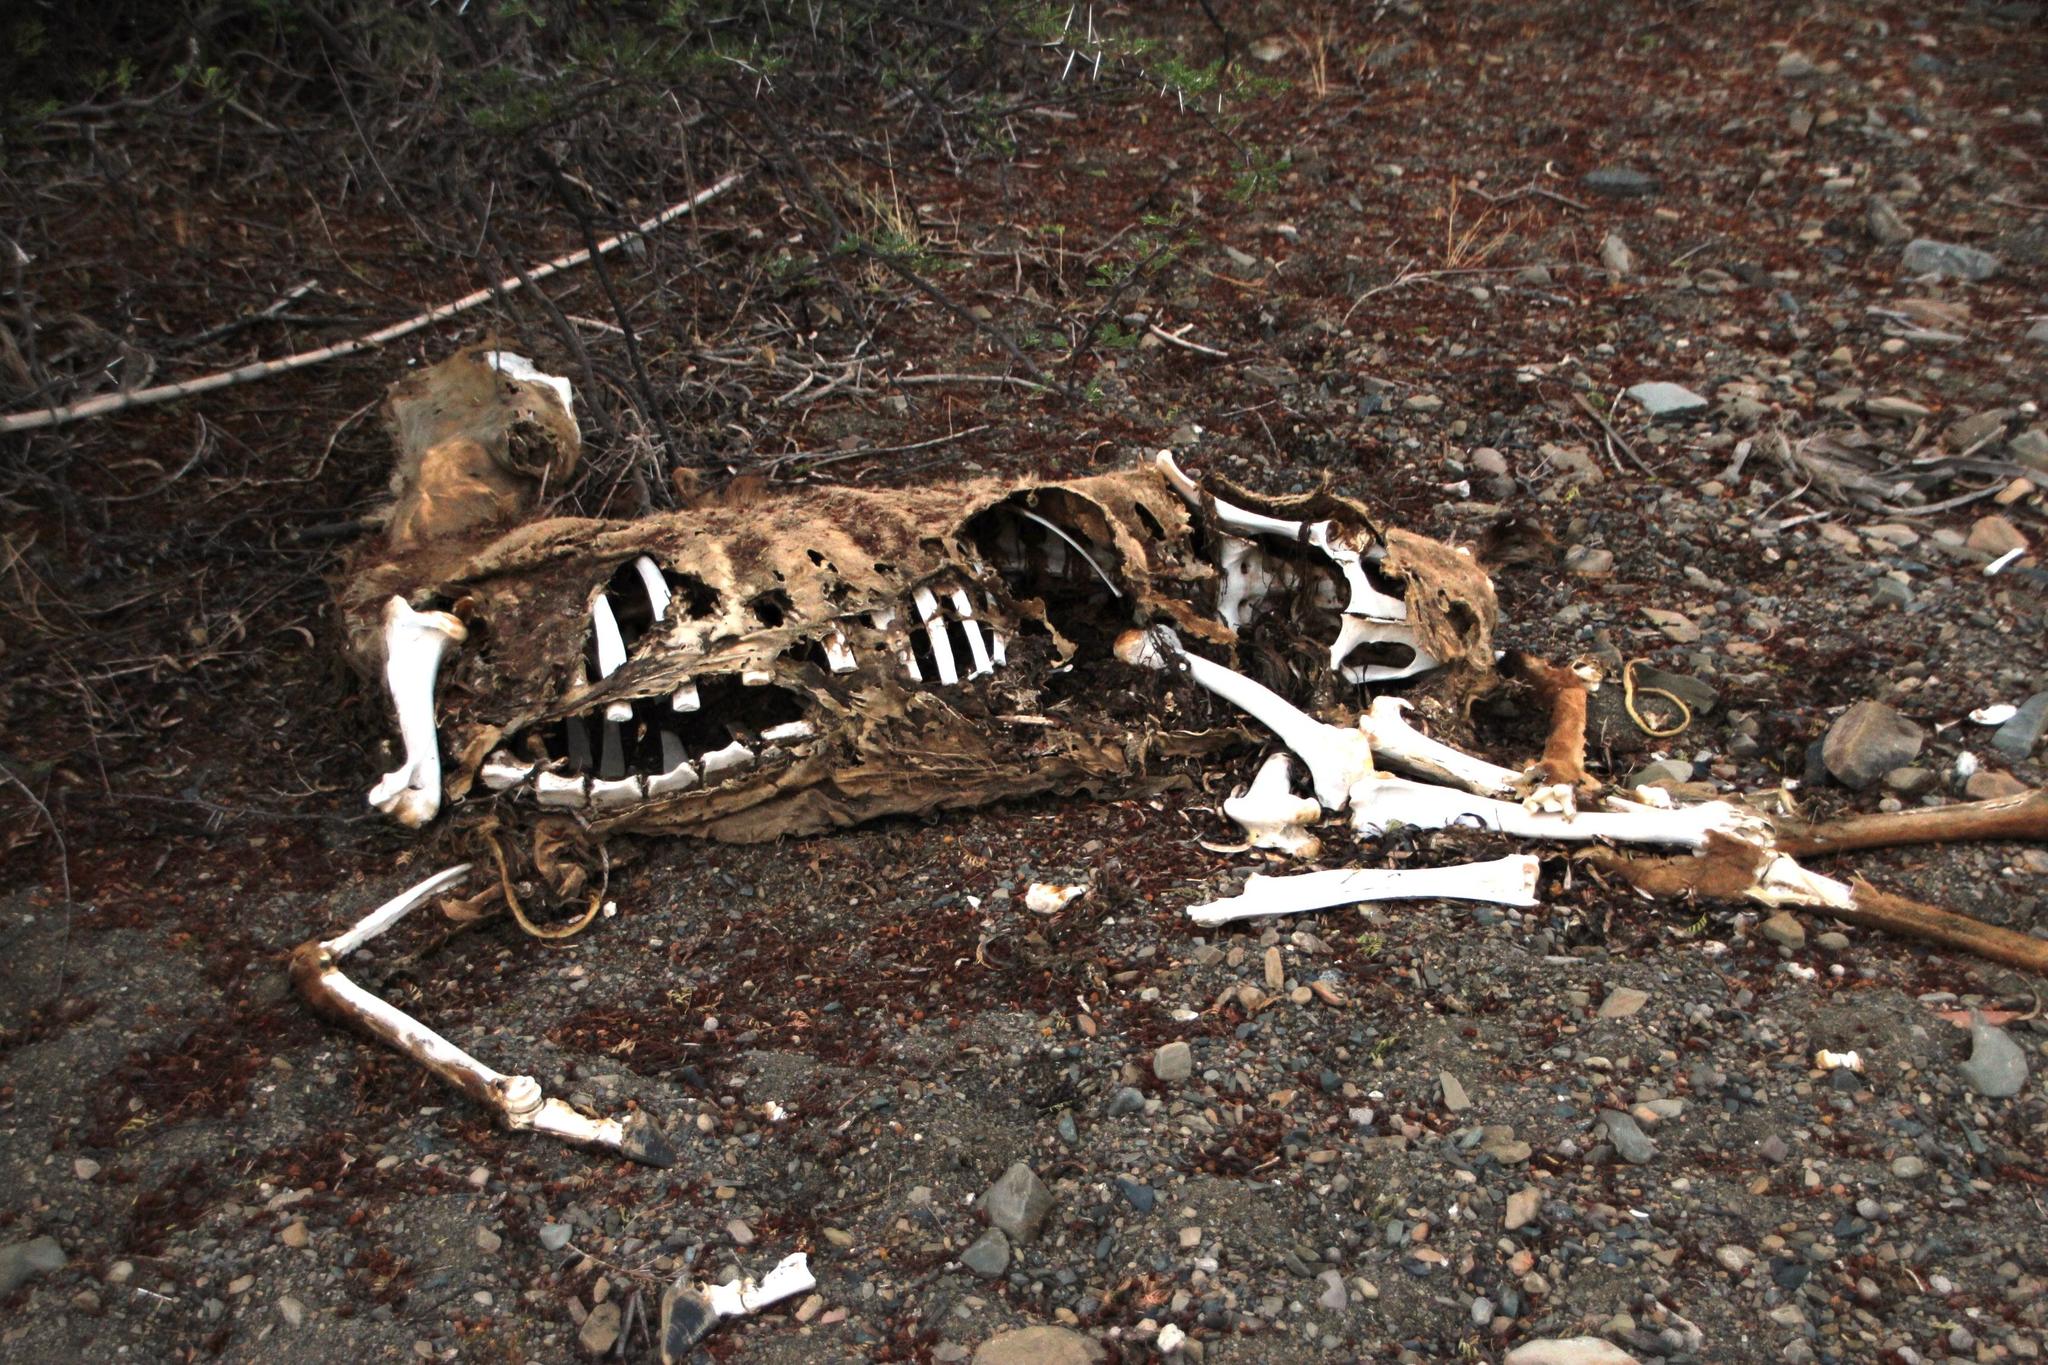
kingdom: Animalia
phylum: Chordata
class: Mammalia
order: Artiodactyla
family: Bovidae
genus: Tragelaphus
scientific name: Tragelaphus strepsiceros
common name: Greater kudu
